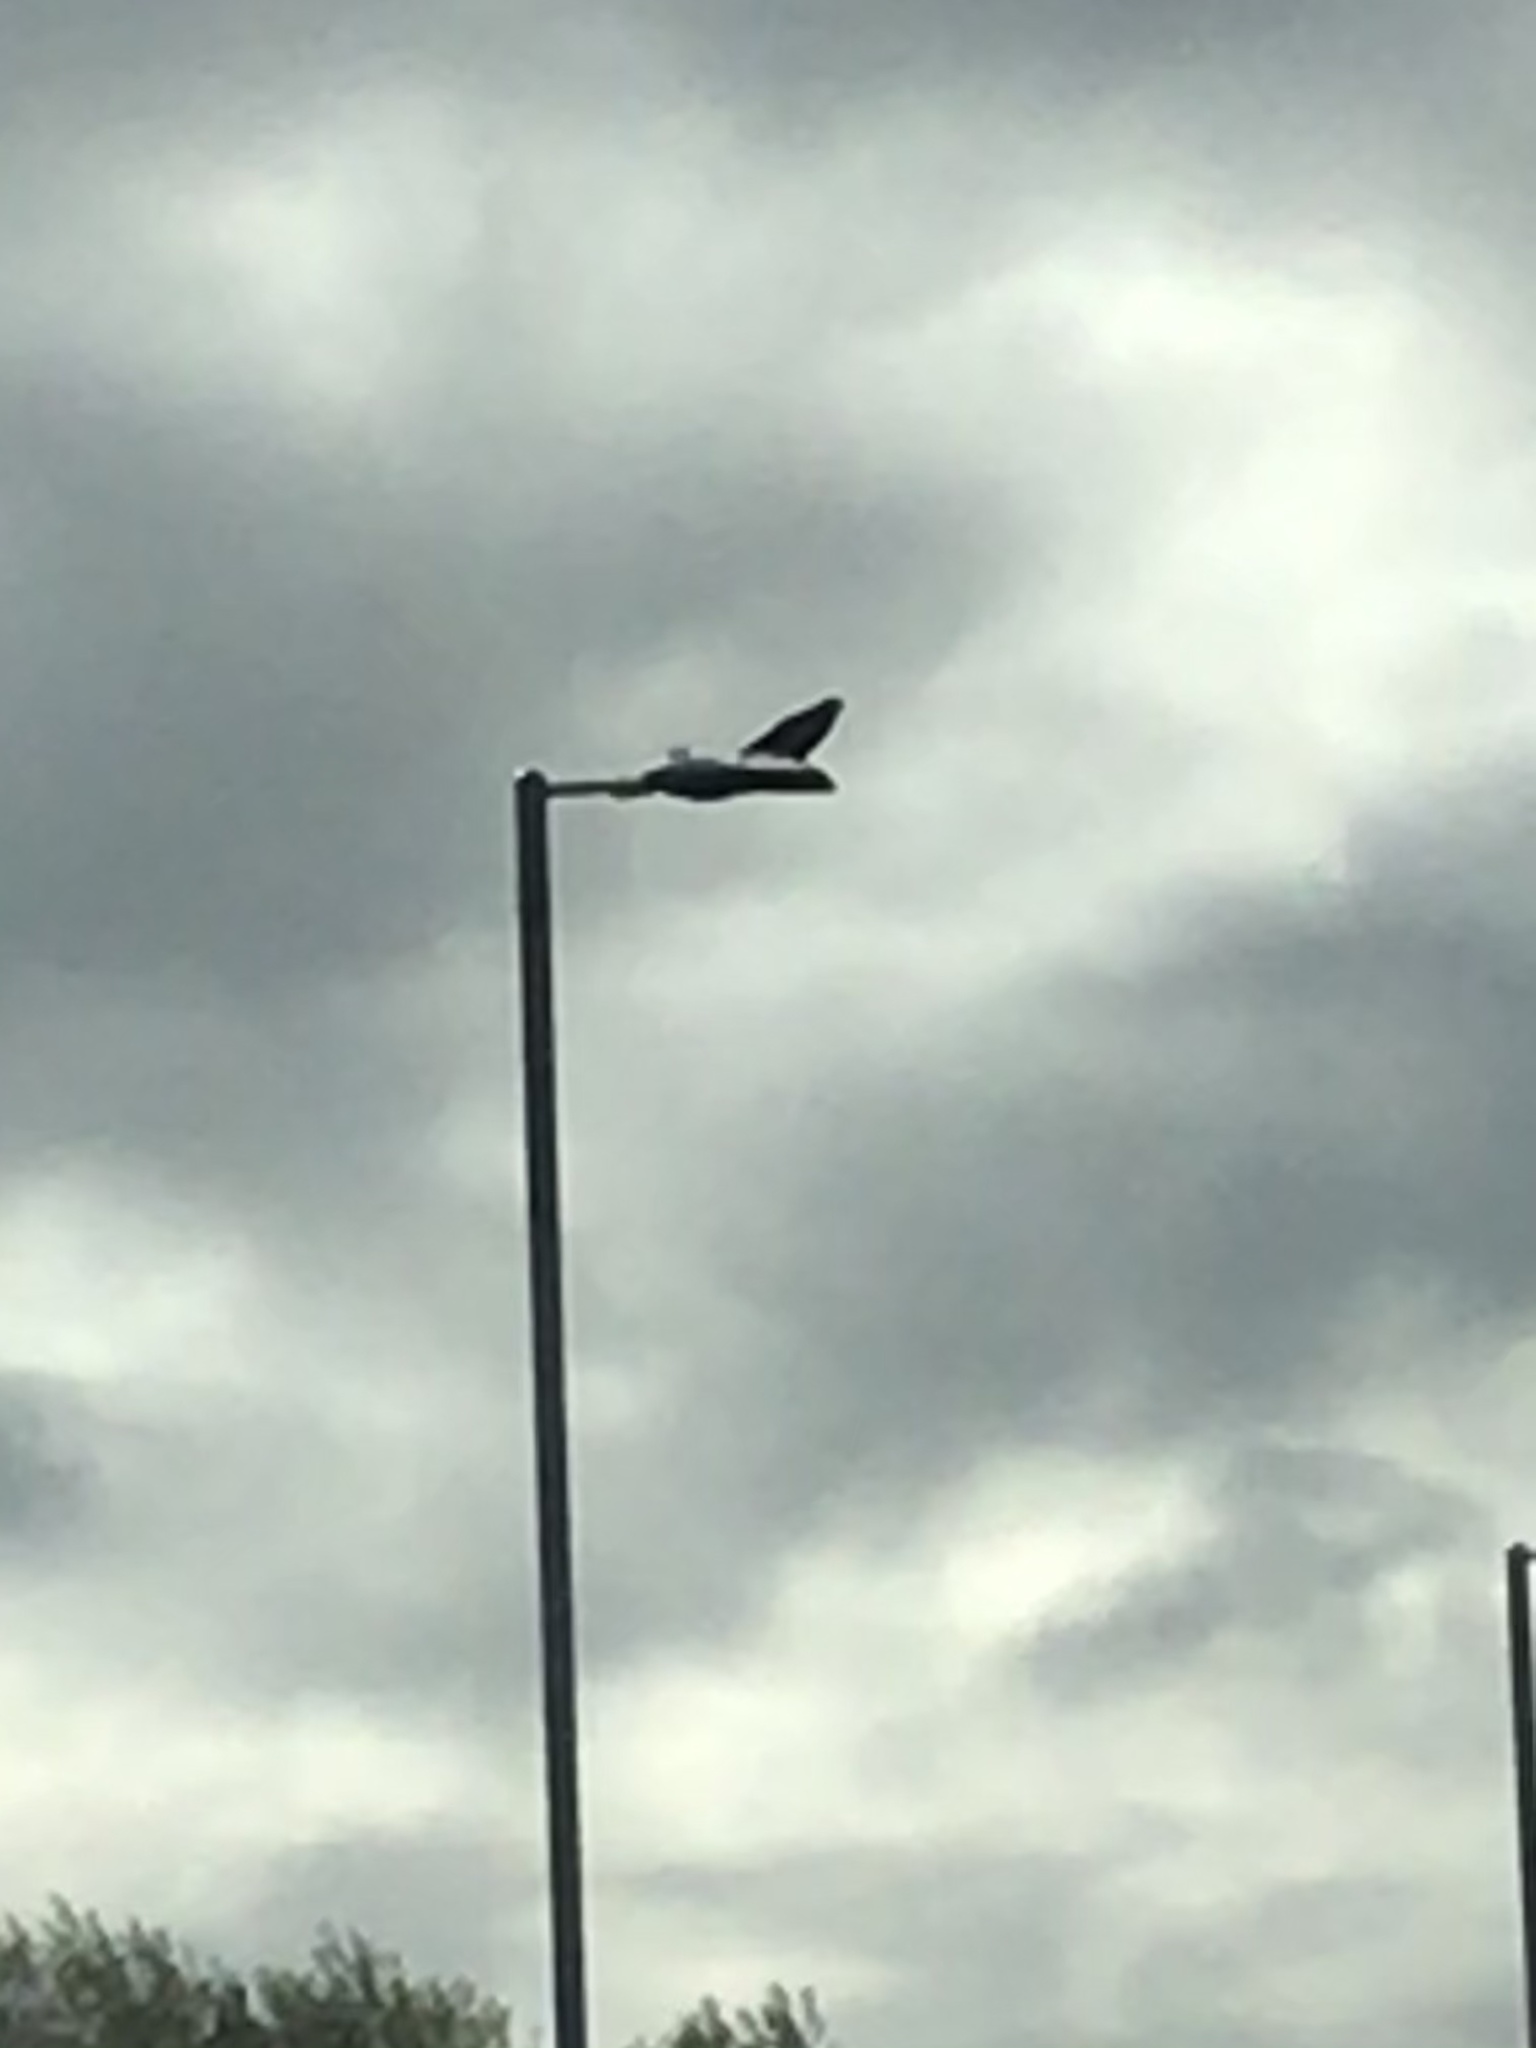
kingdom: Animalia
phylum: Chordata
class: Aves
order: Accipitriformes
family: Accipitridae
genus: Buteo
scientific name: Buteo buteo
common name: Common buzzard
